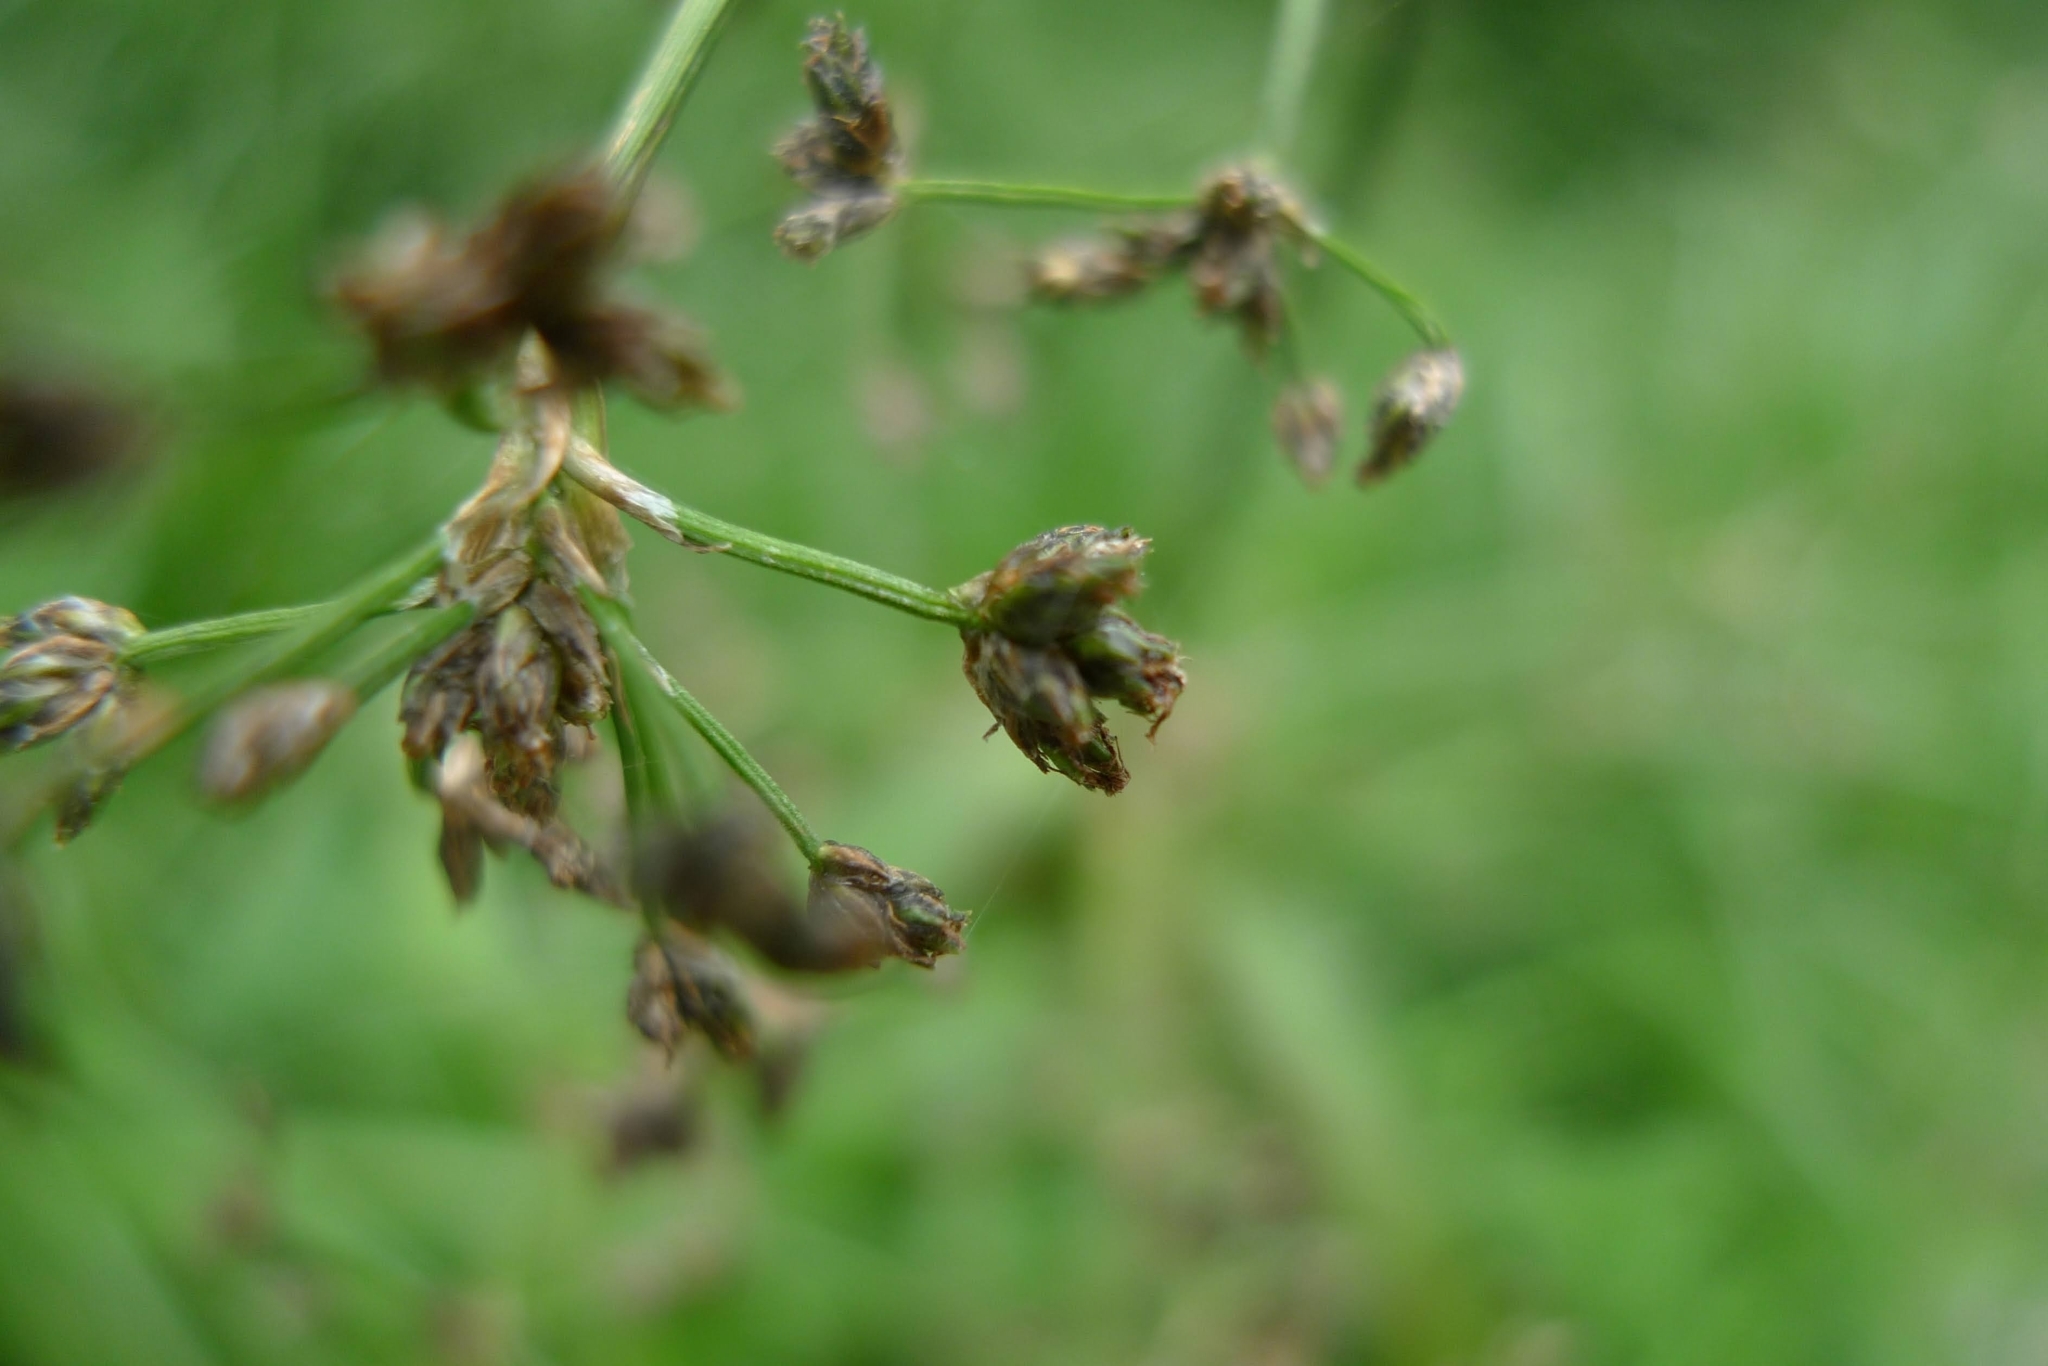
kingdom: Plantae
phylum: Tracheophyta
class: Liliopsida
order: Poales
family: Cyperaceae
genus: Scirpus
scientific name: Scirpus sylvaticus
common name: Wood club-rush
